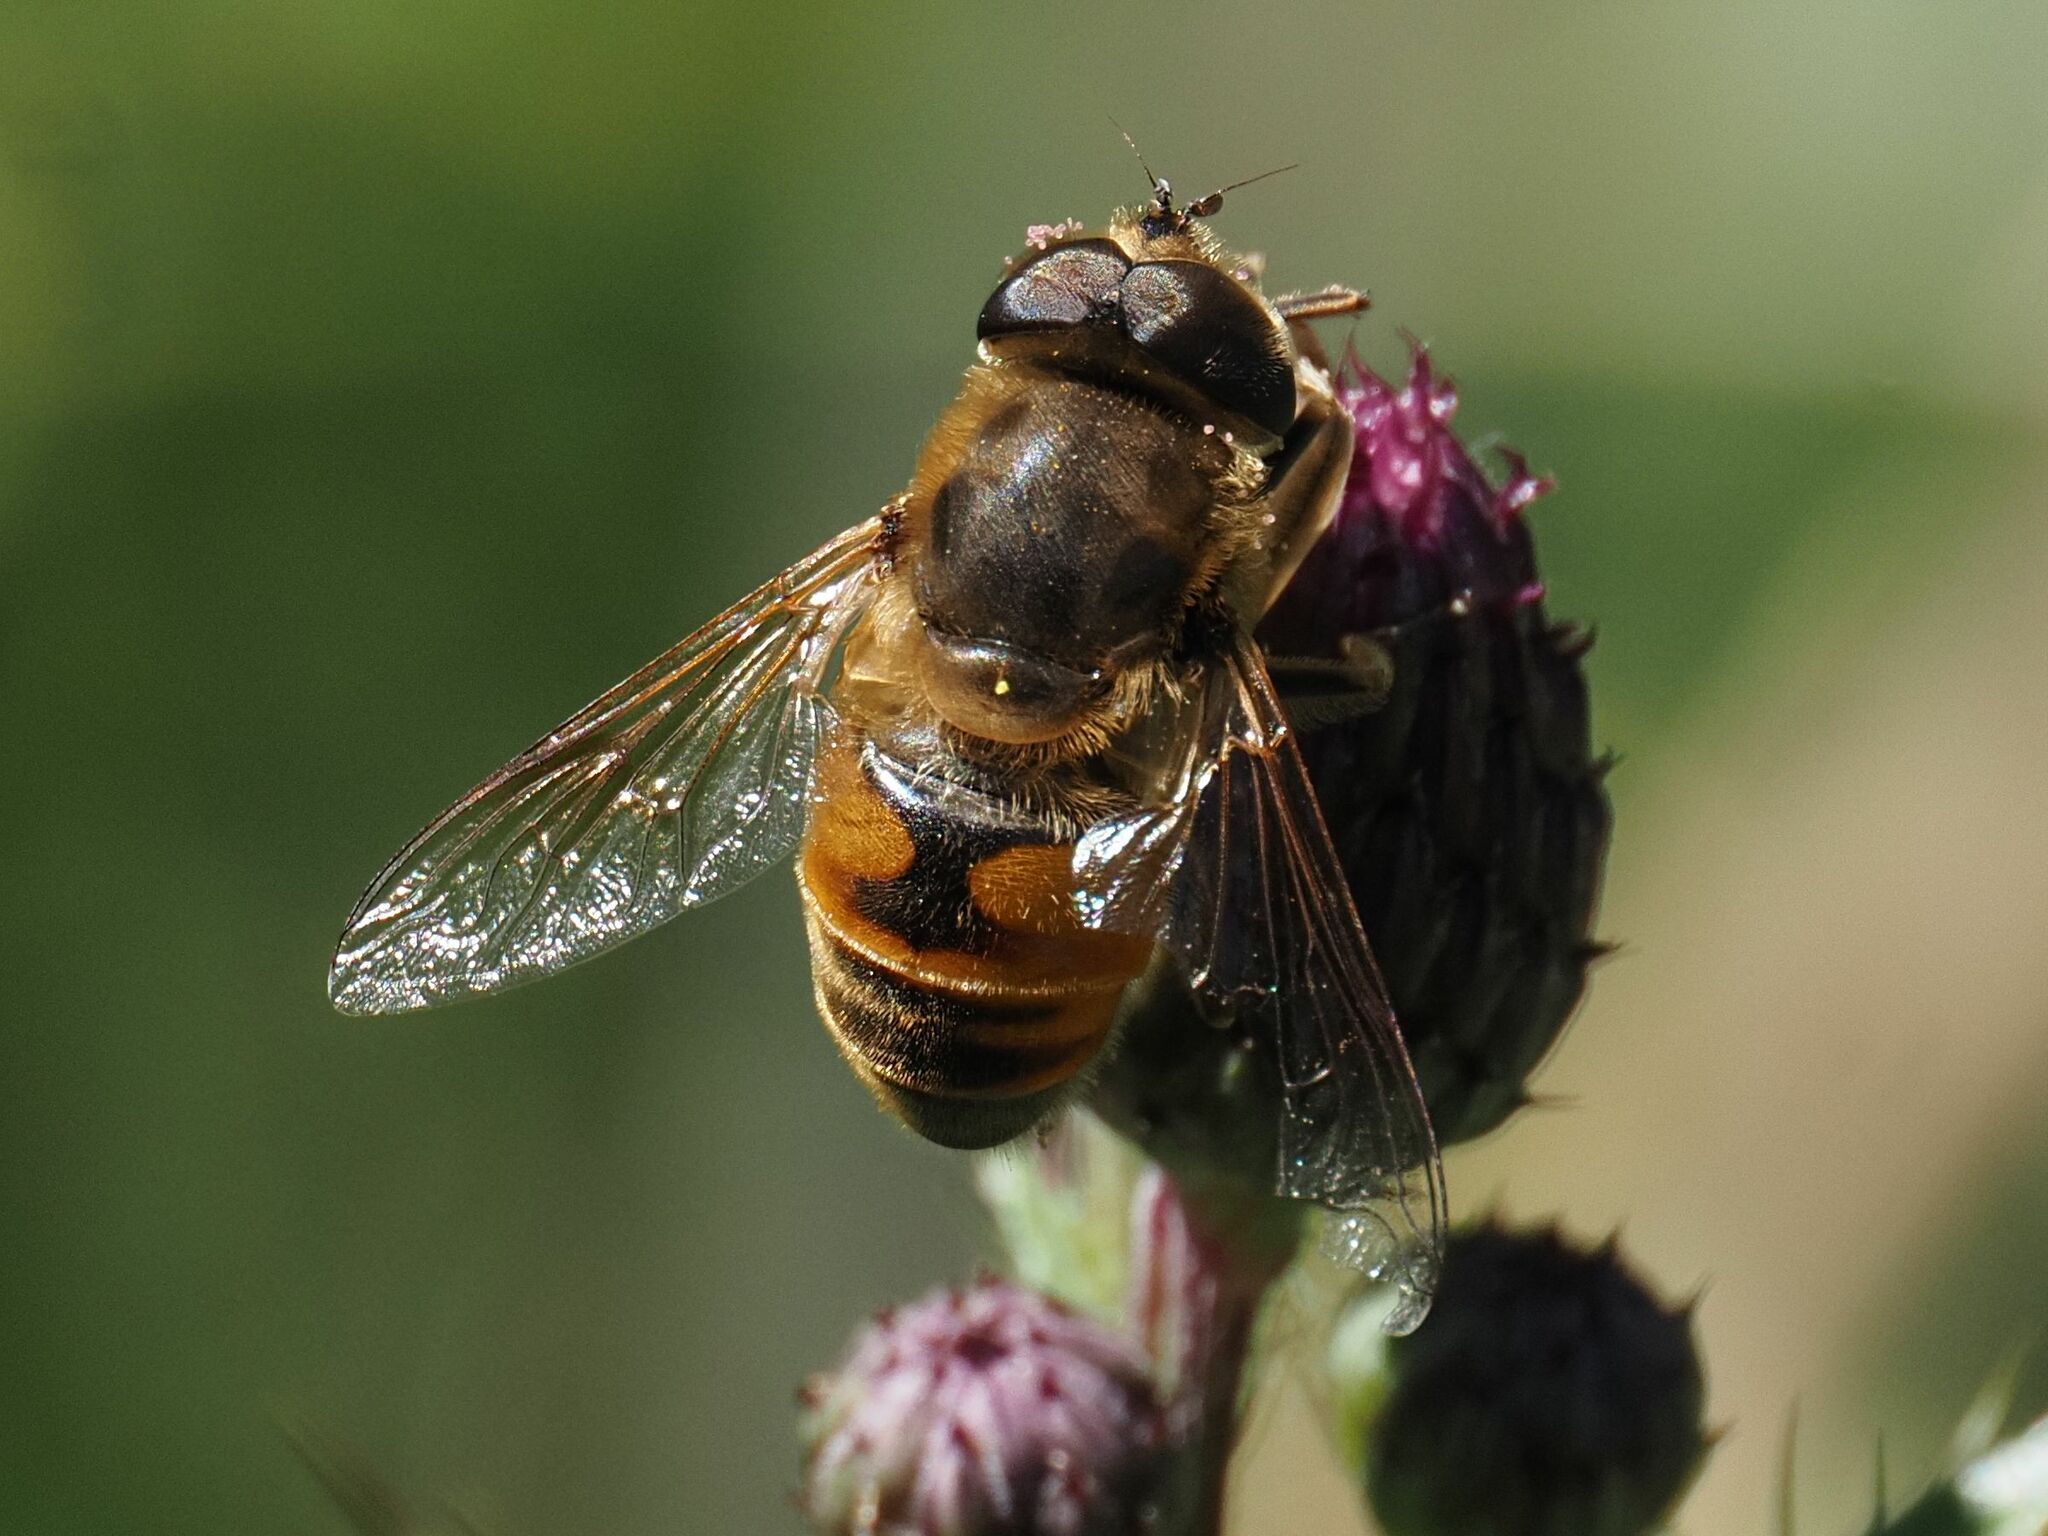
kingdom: Animalia
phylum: Arthropoda
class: Insecta
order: Diptera
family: Syrphidae
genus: Eristalis
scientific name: Eristalis tenax
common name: Drone fly
